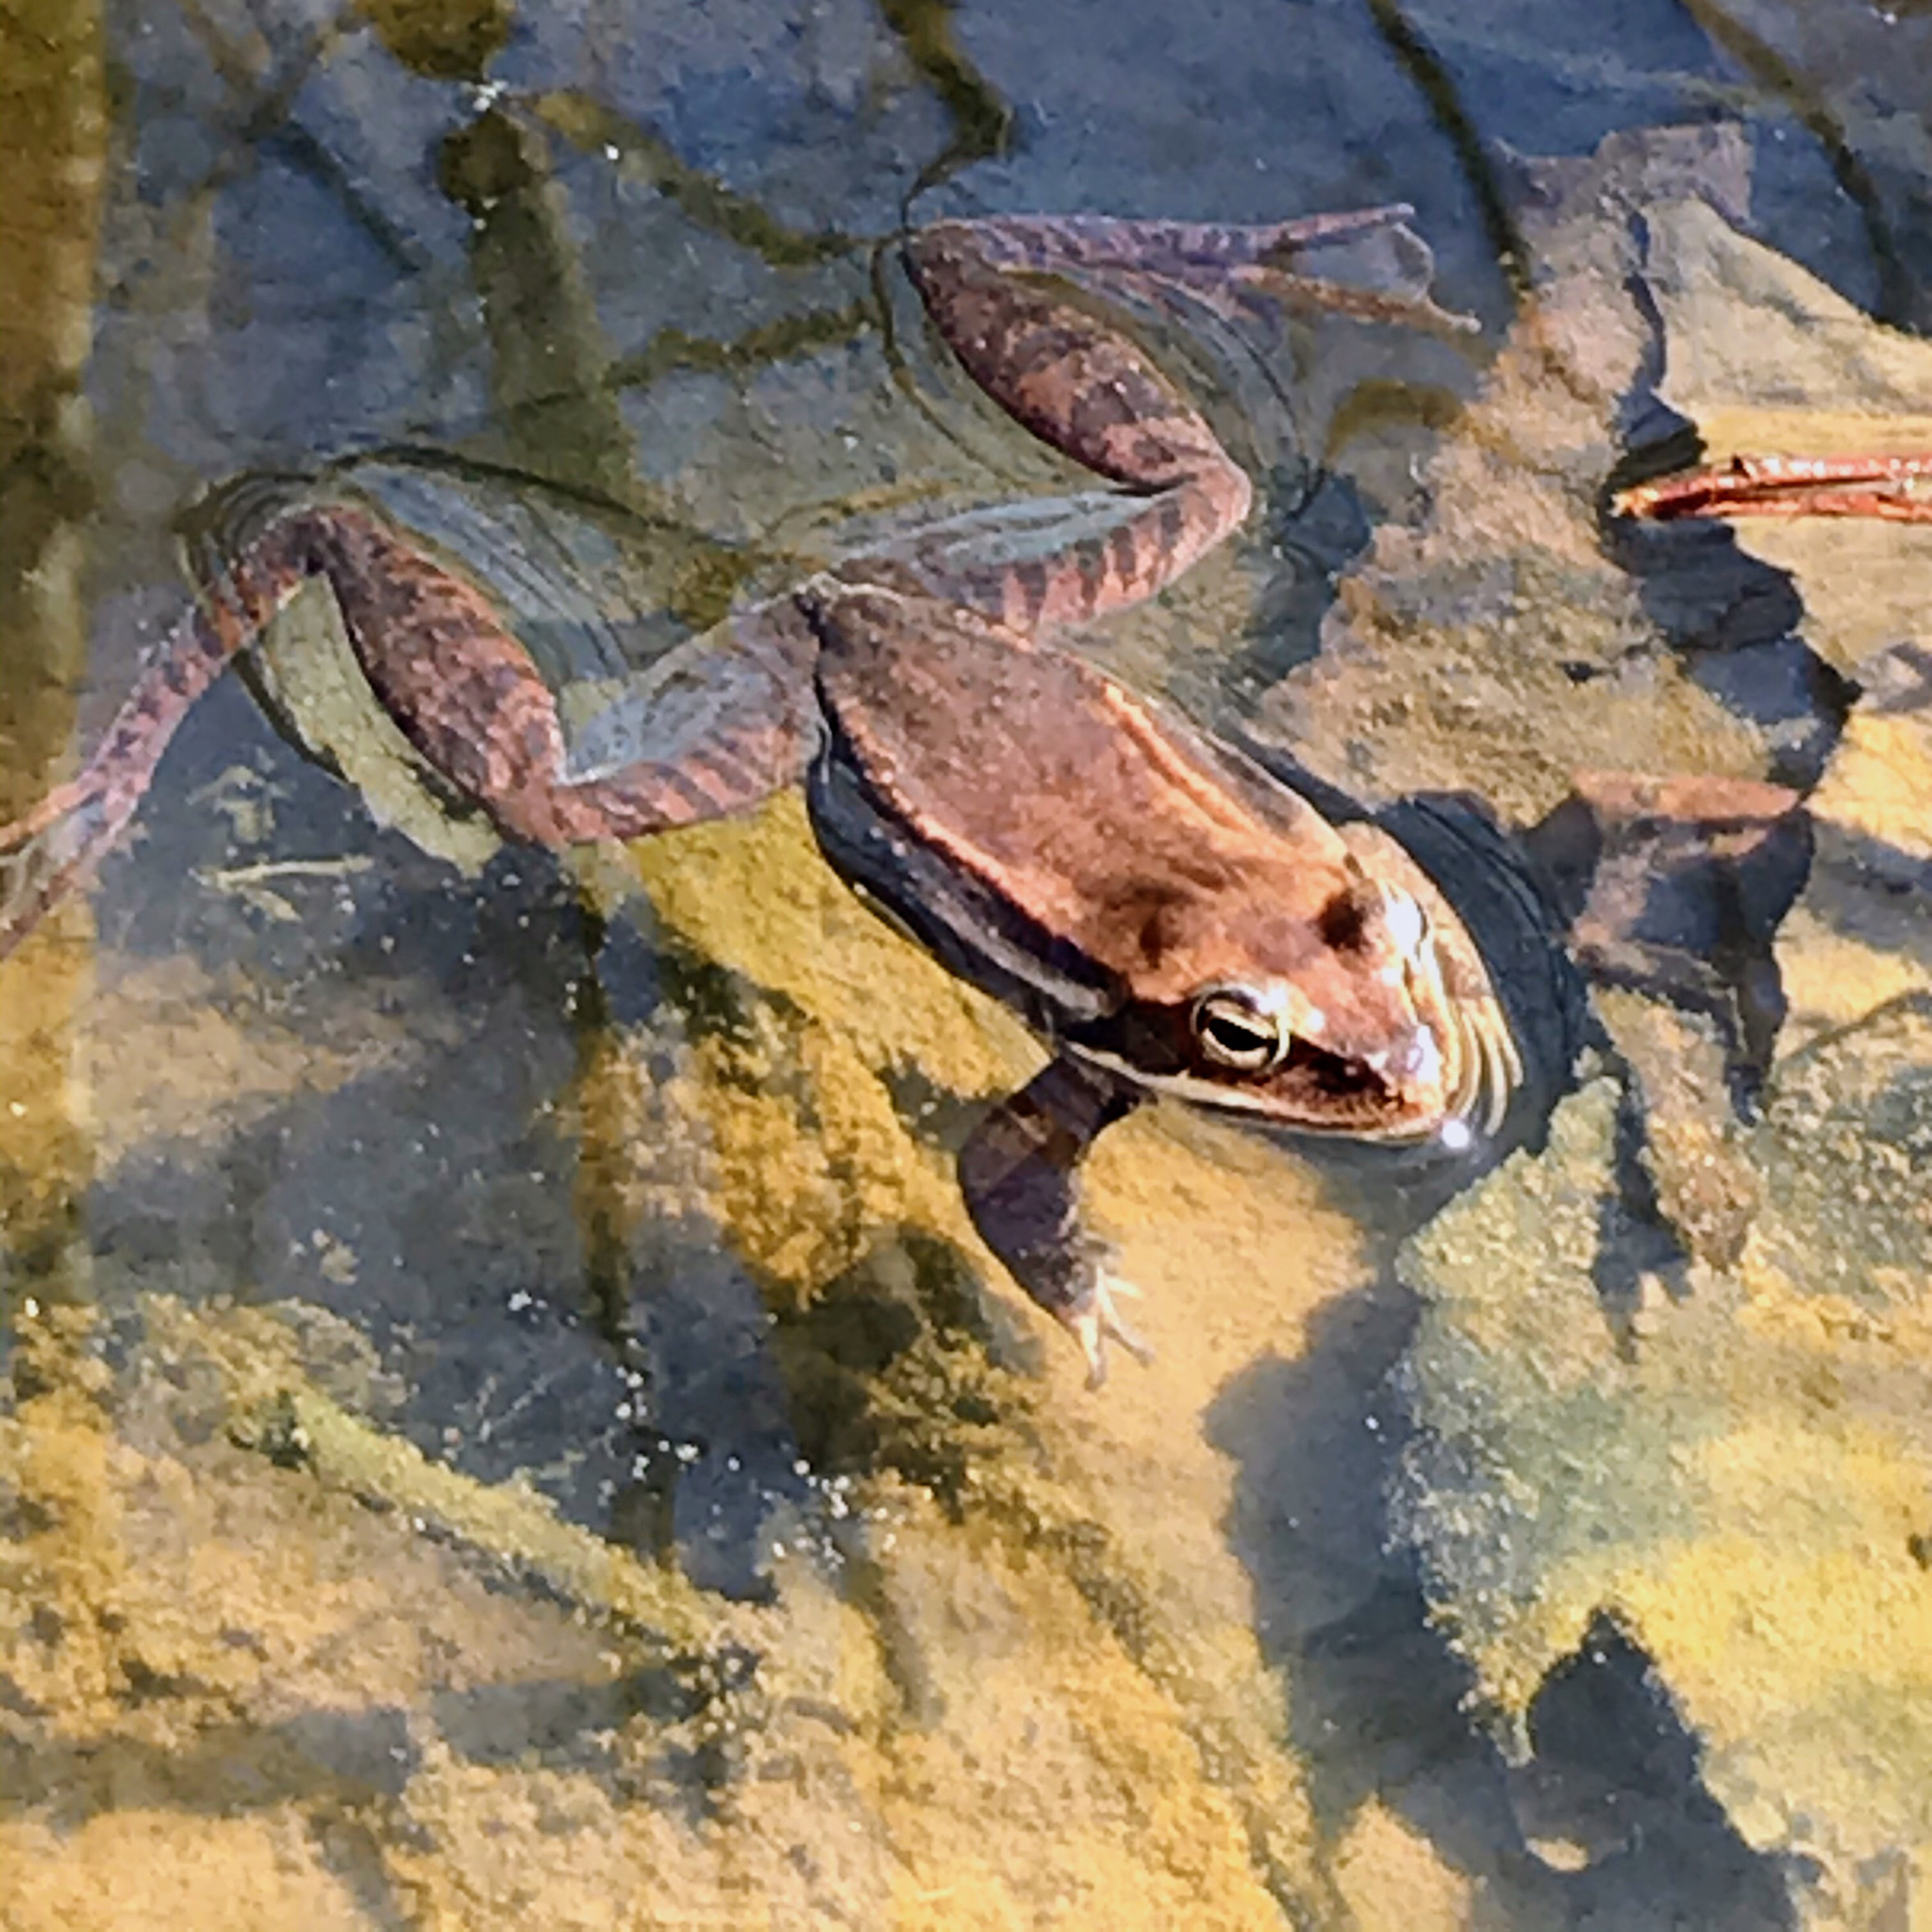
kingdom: Animalia
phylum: Chordata
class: Amphibia
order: Anura
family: Ranidae
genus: Lithobates
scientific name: Lithobates sylvaticus
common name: Wood frog
